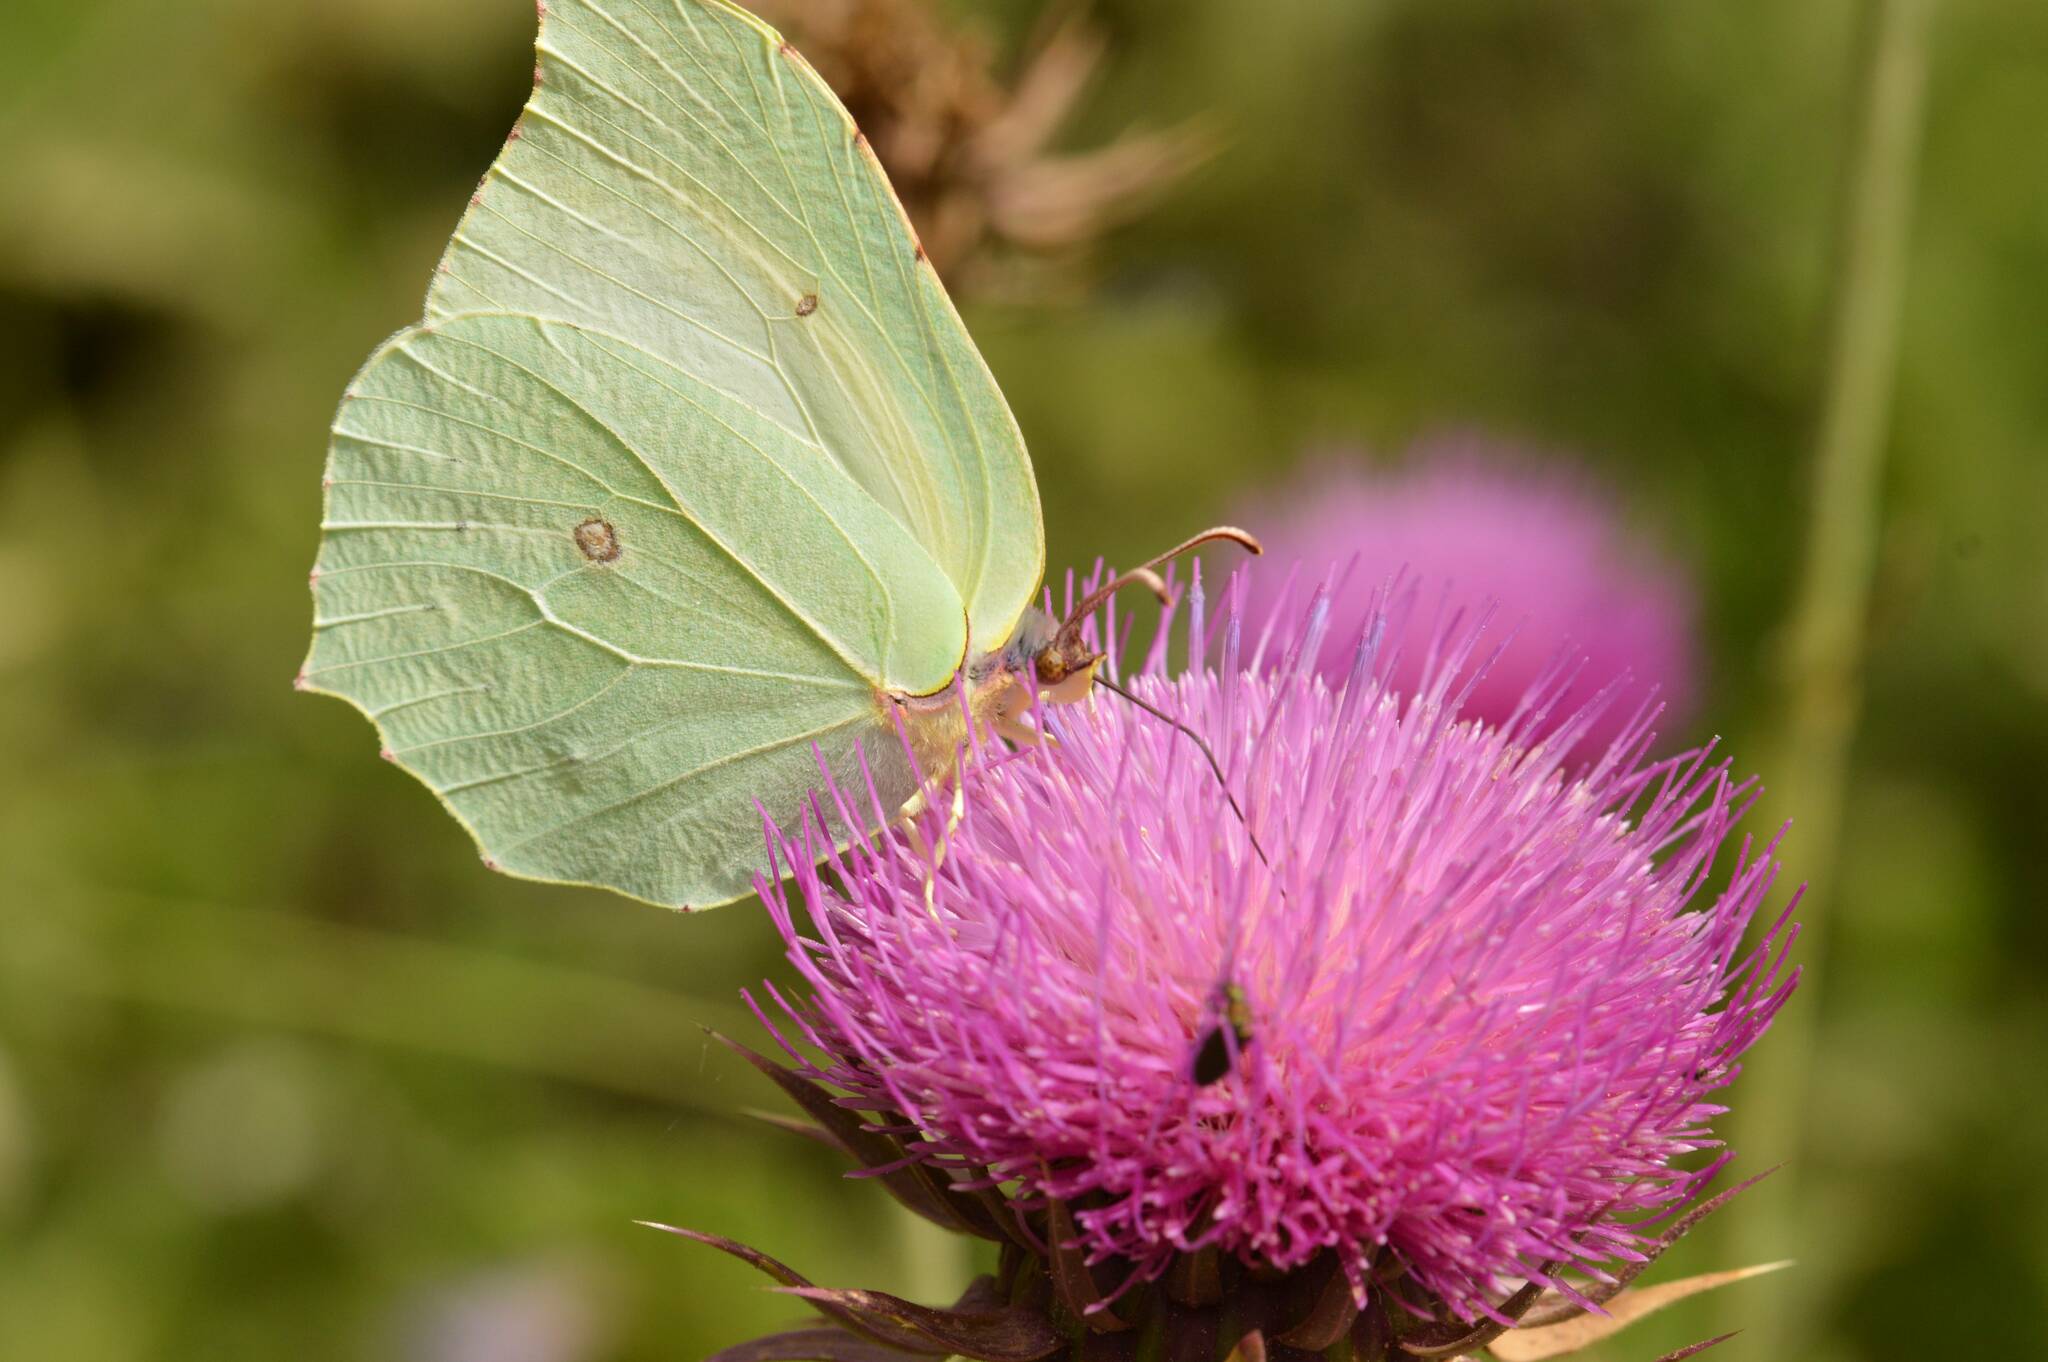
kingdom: Animalia
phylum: Arthropoda
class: Insecta
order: Lepidoptera
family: Pieridae
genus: Gonepteryx
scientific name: Gonepteryx rhamni
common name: Brimstone
